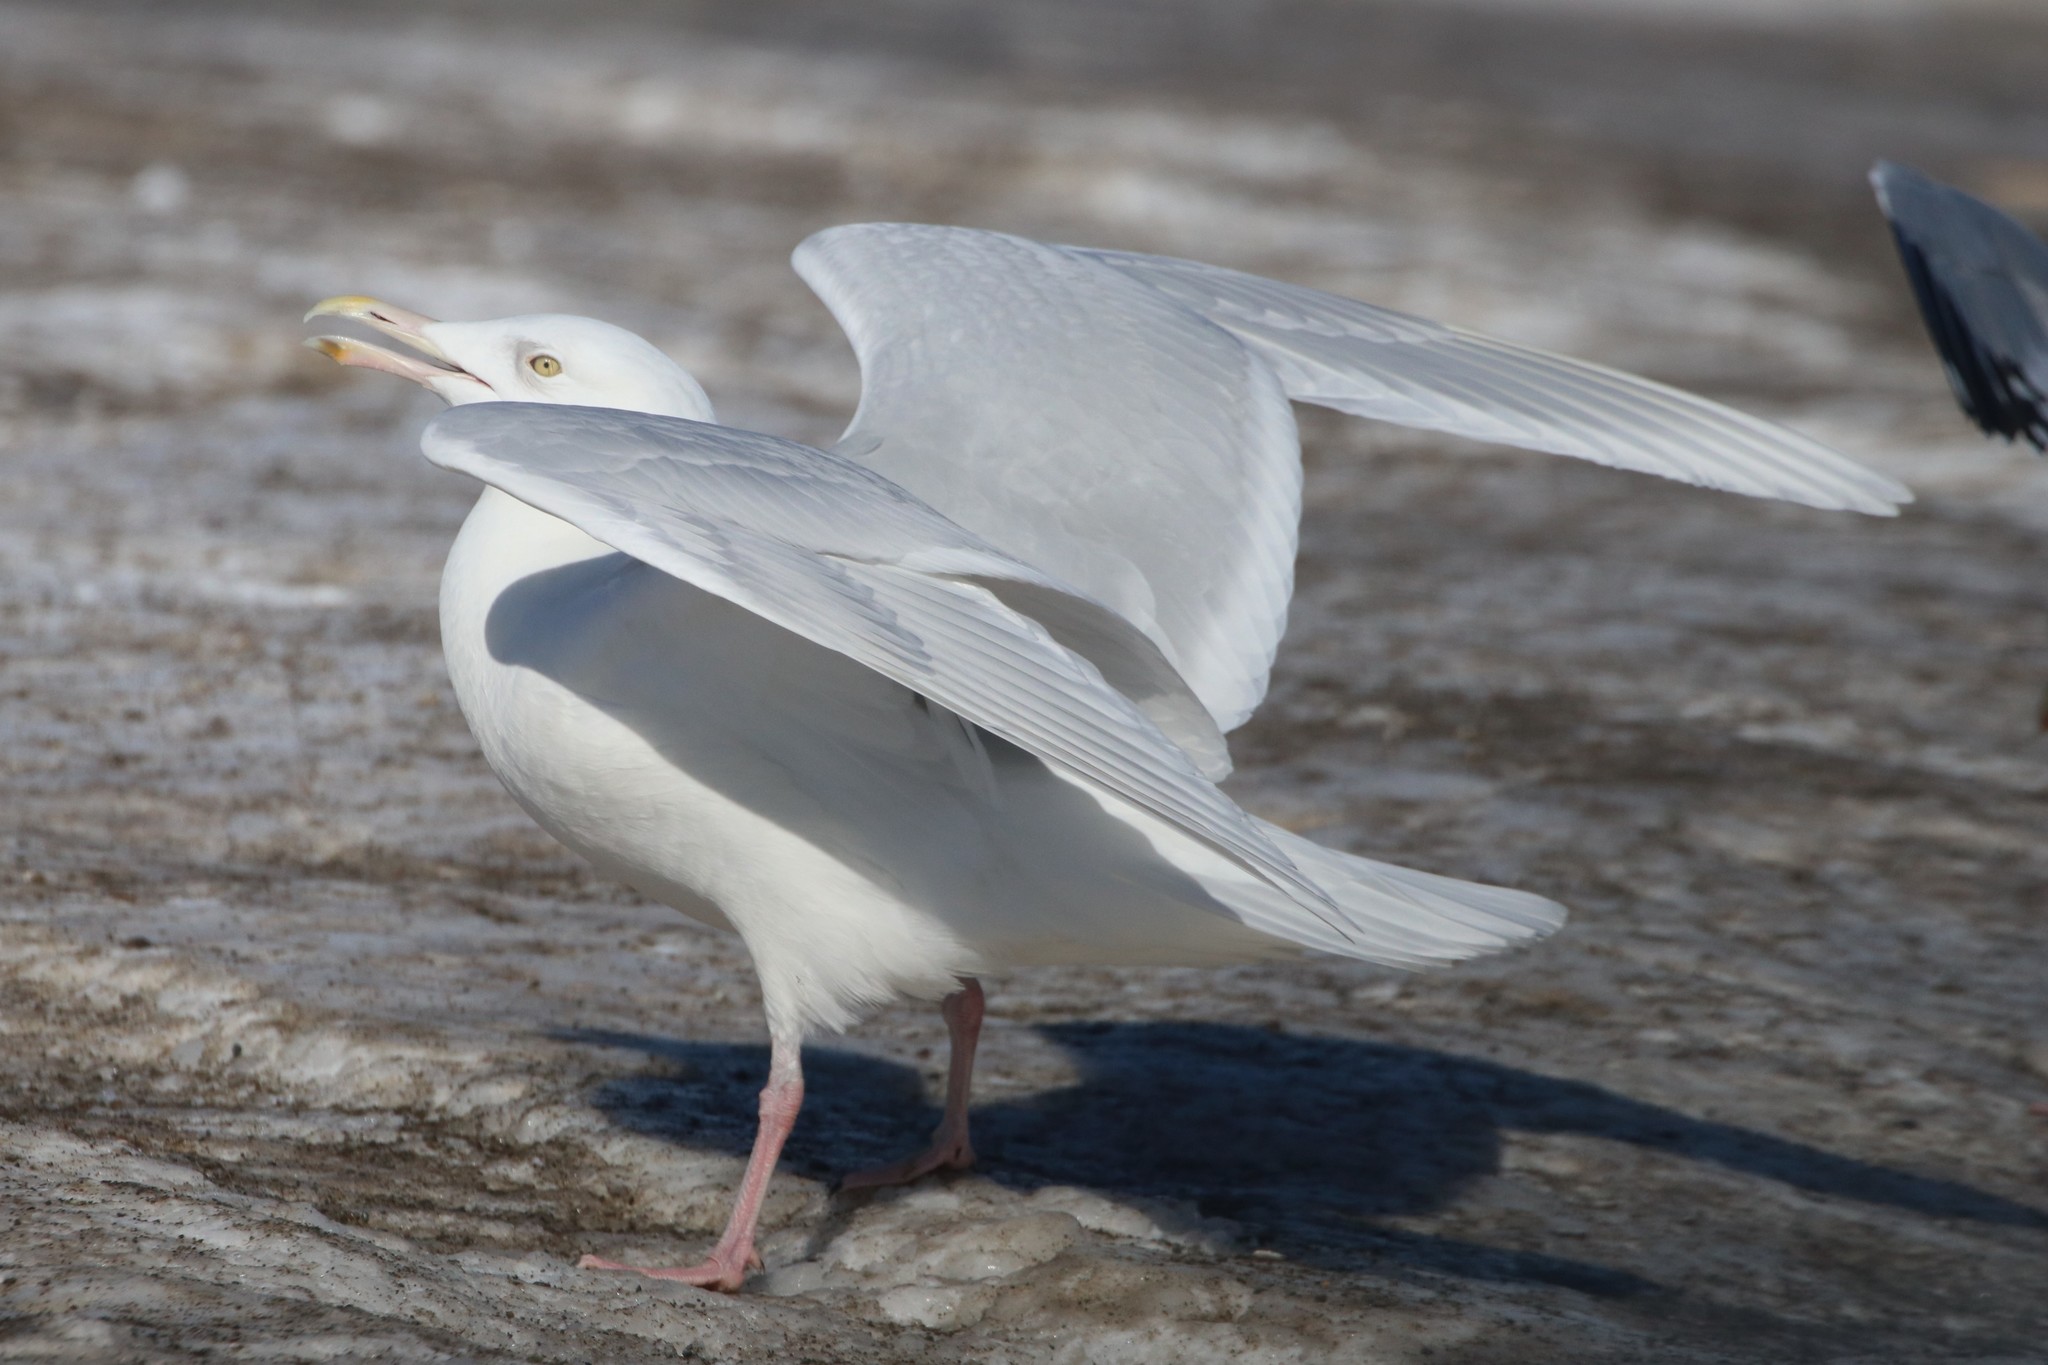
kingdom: Animalia
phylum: Chordata
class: Aves
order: Charadriiformes
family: Laridae
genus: Larus
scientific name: Larus hyperboreus
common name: Glaucous gull
